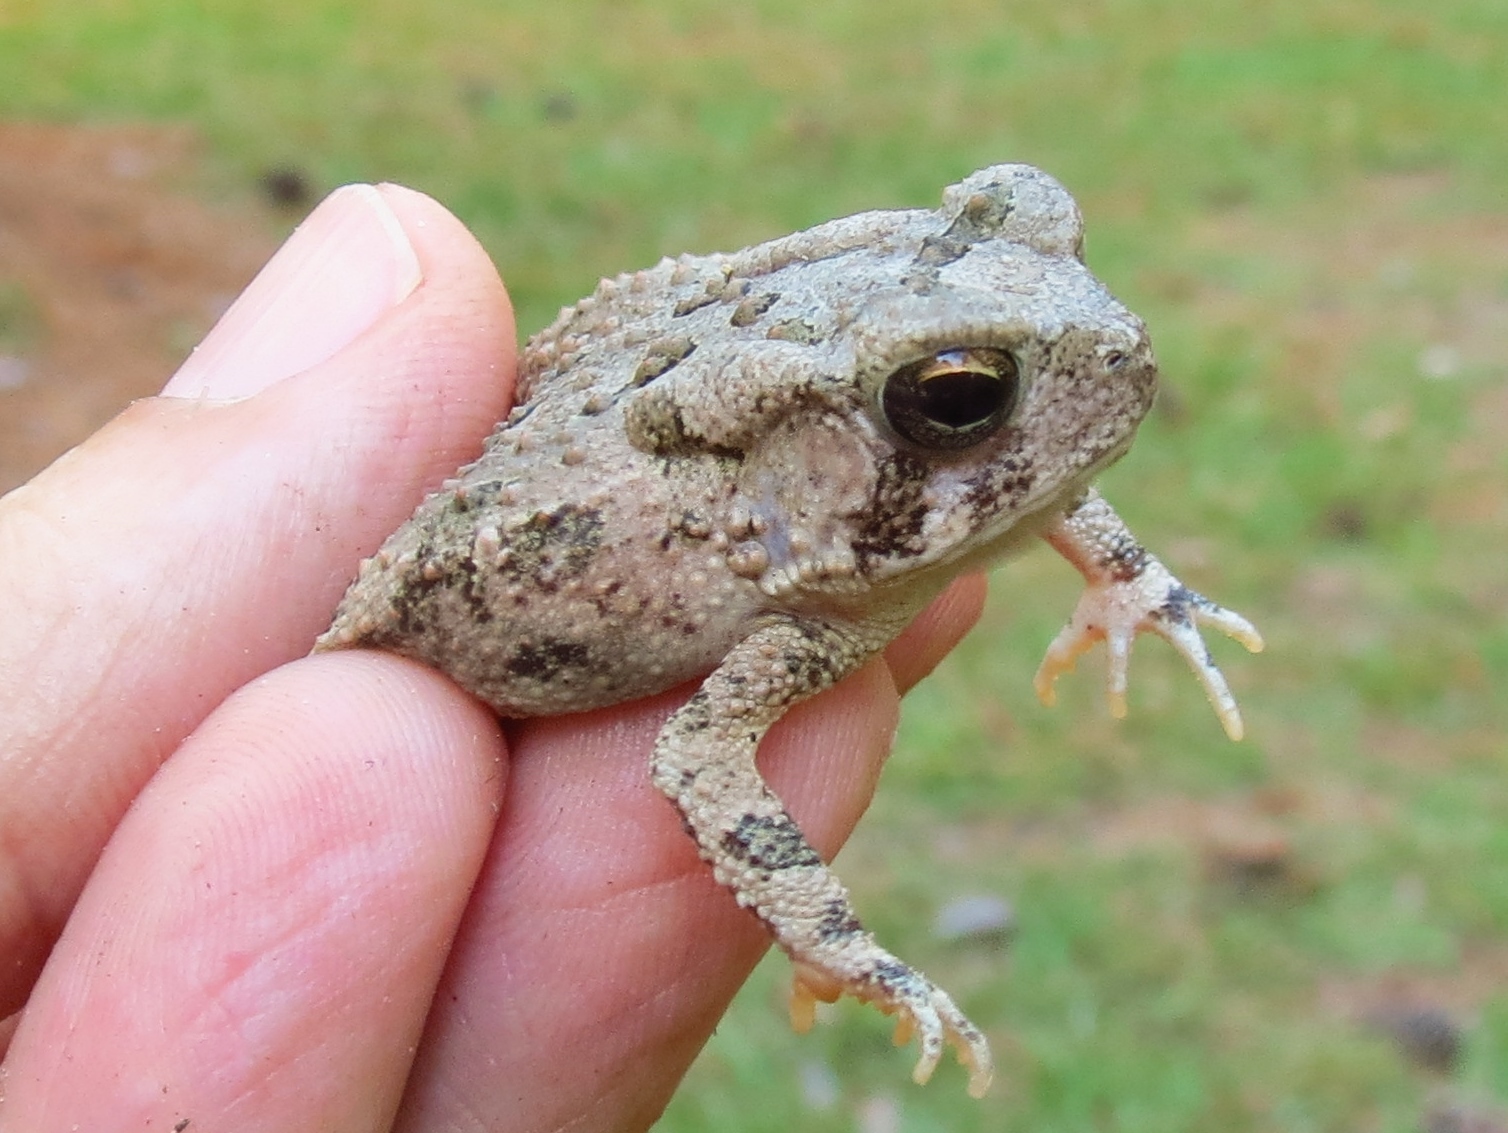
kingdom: Animalia
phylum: Chordata
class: Amphibia
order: Anura
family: Bufonidae
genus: Anaxyrus
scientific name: Anaxyrus fowleri
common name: Fowler's toad
